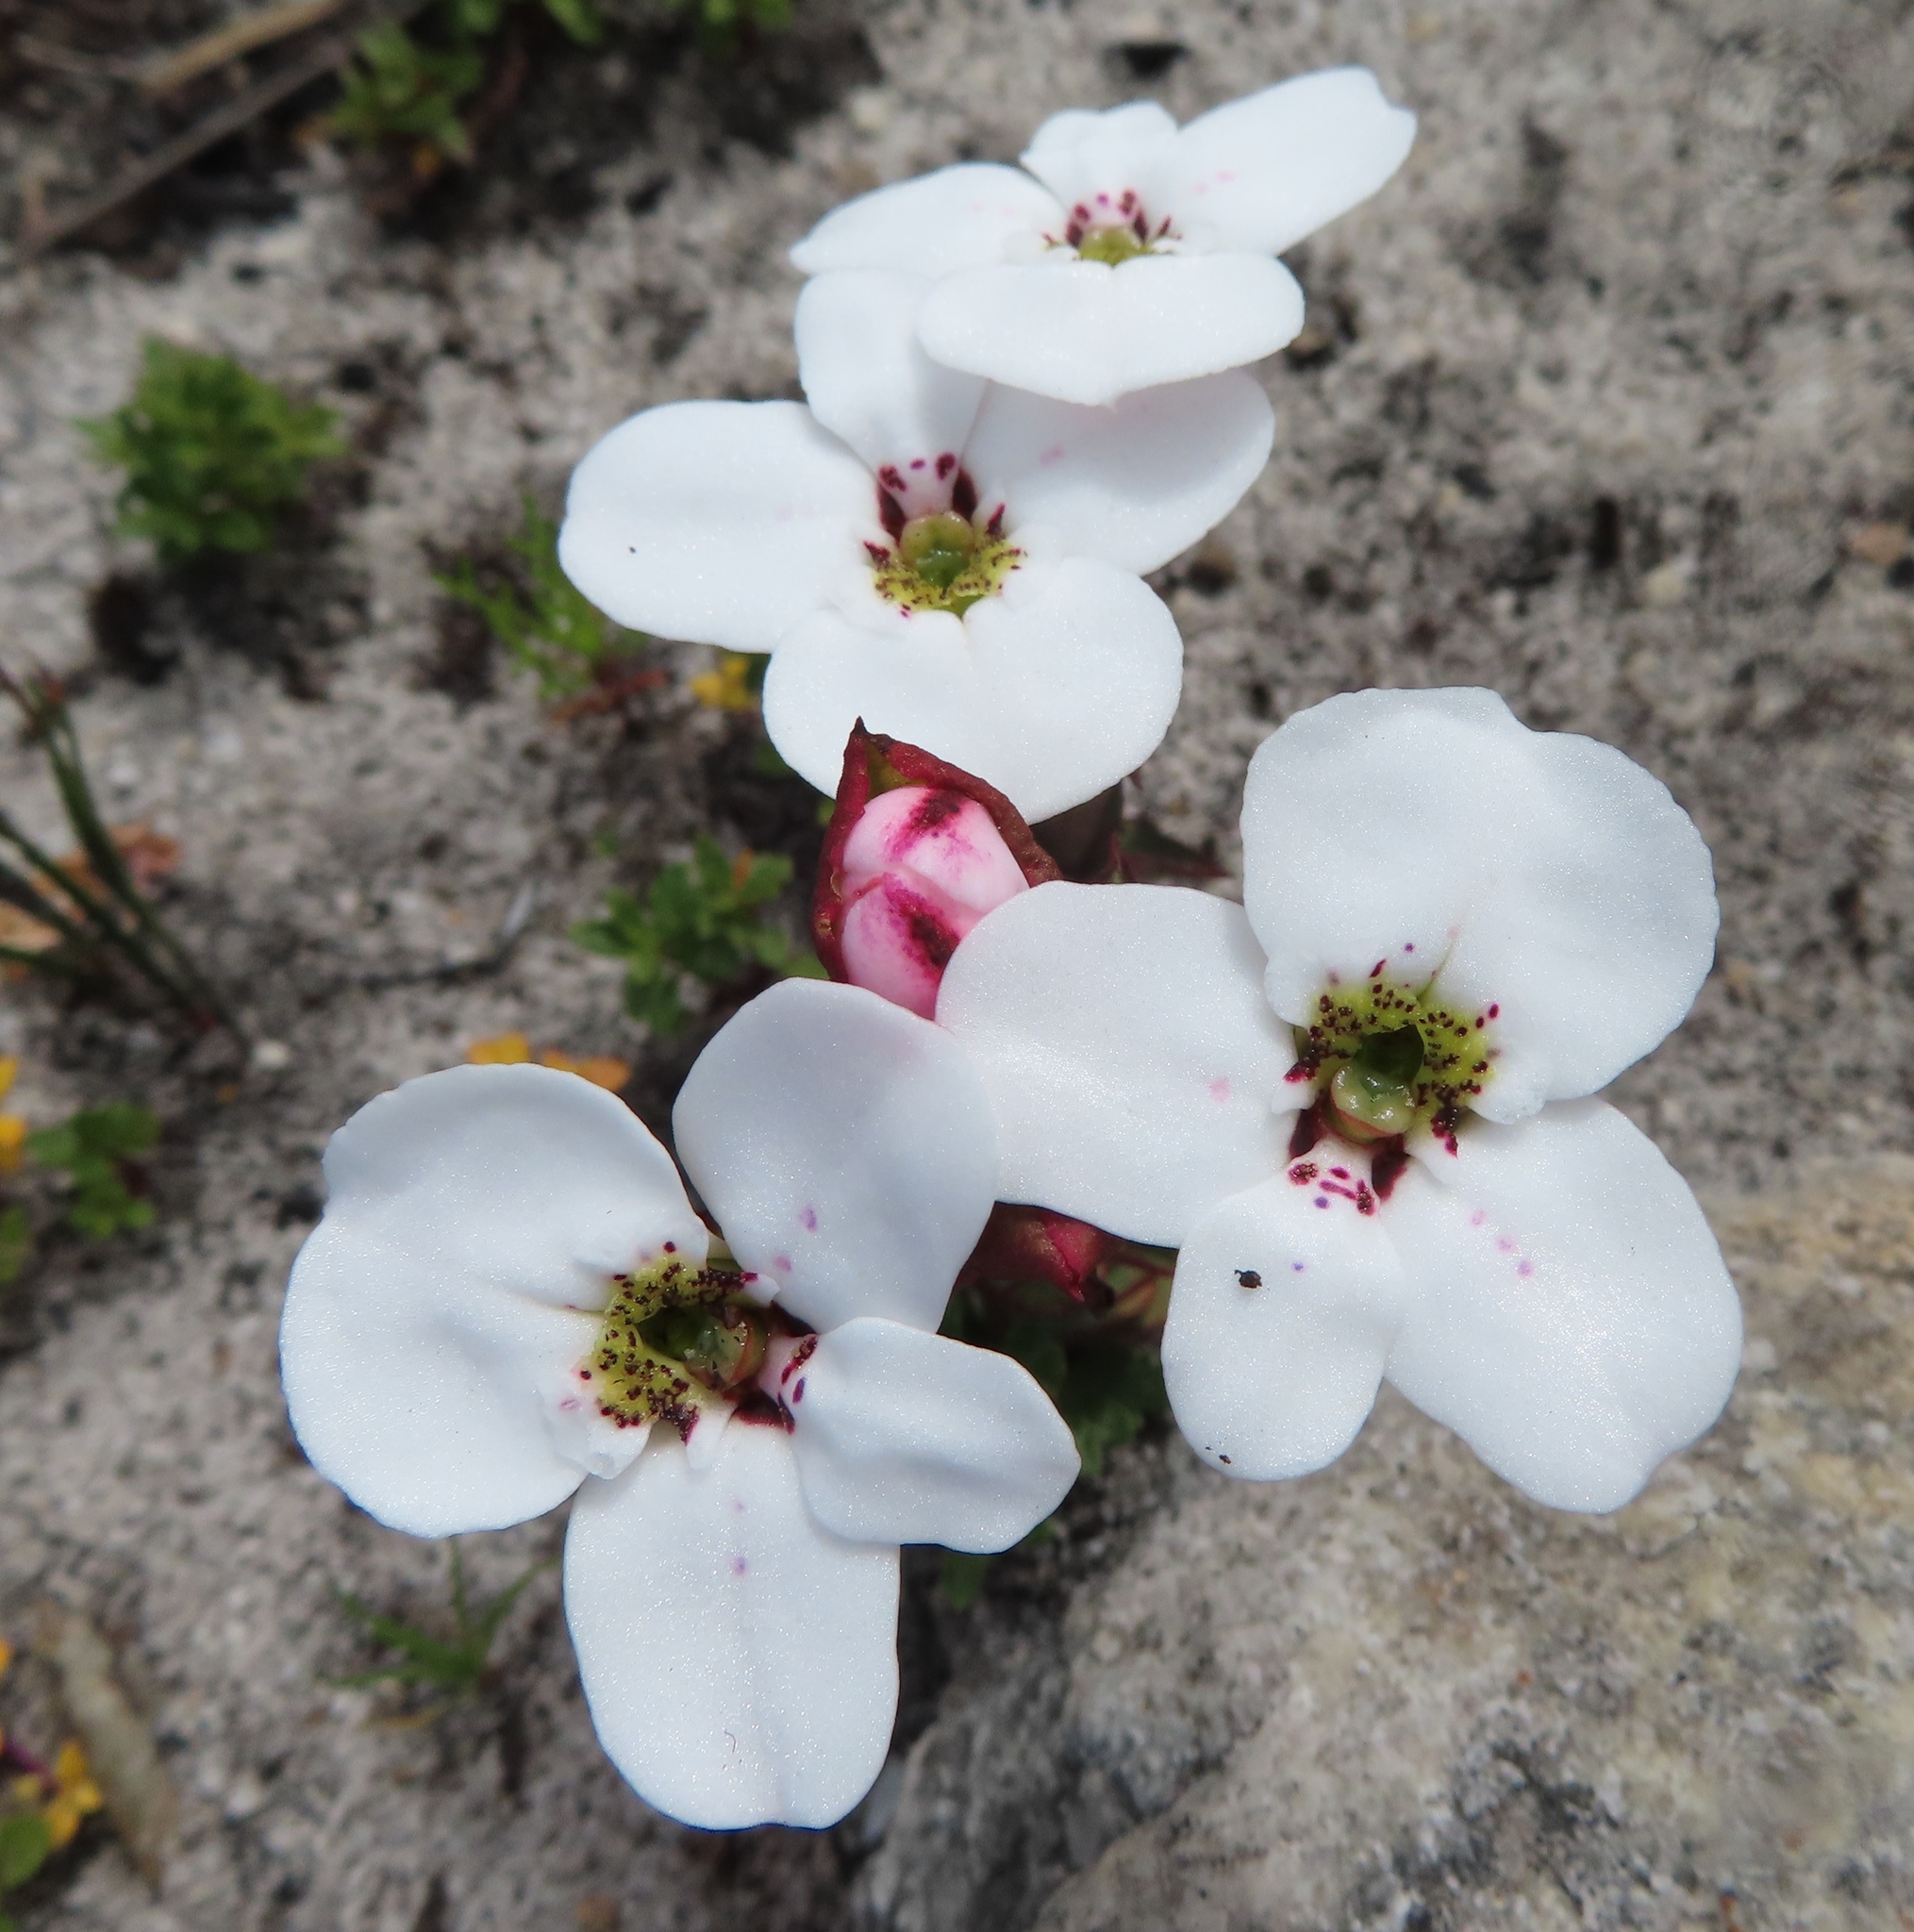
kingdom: Plantae
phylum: Tracheophyta
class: Liliopsida
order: Asparagales
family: Orchidaceae
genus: Disa
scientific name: Disa fasciata
